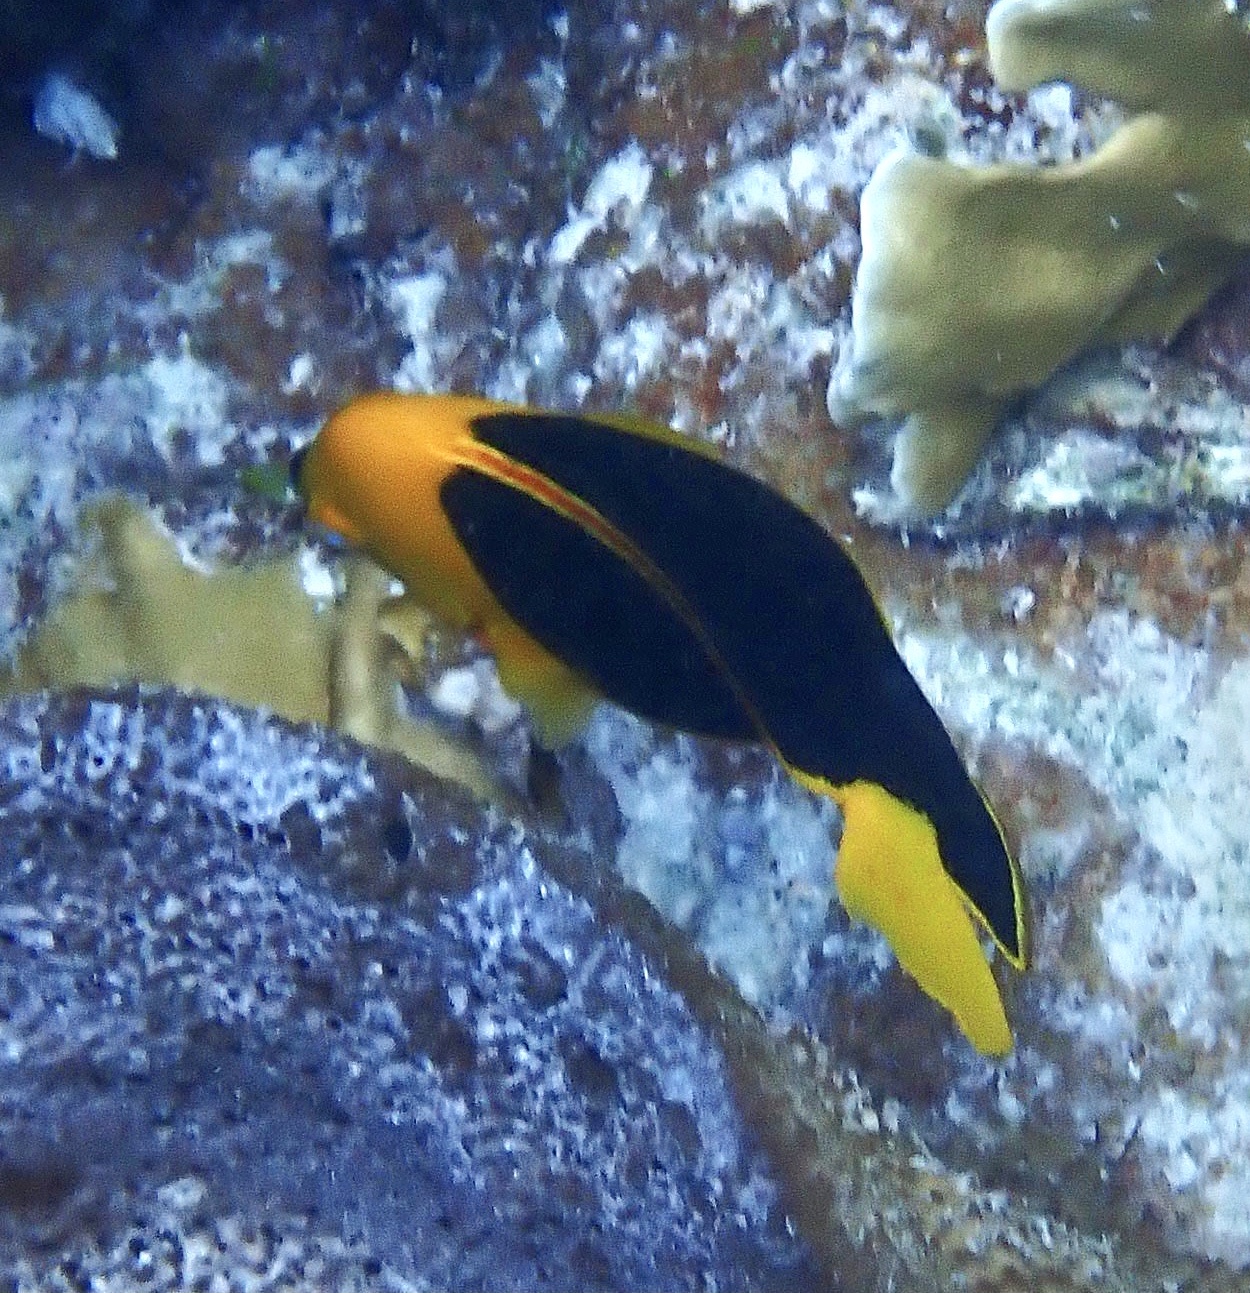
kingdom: Animalia
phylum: Chordata
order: Perciformes
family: Pomacanthidae
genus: Holacanthus
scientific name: Holacanthus tricolor
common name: Rock beauty
